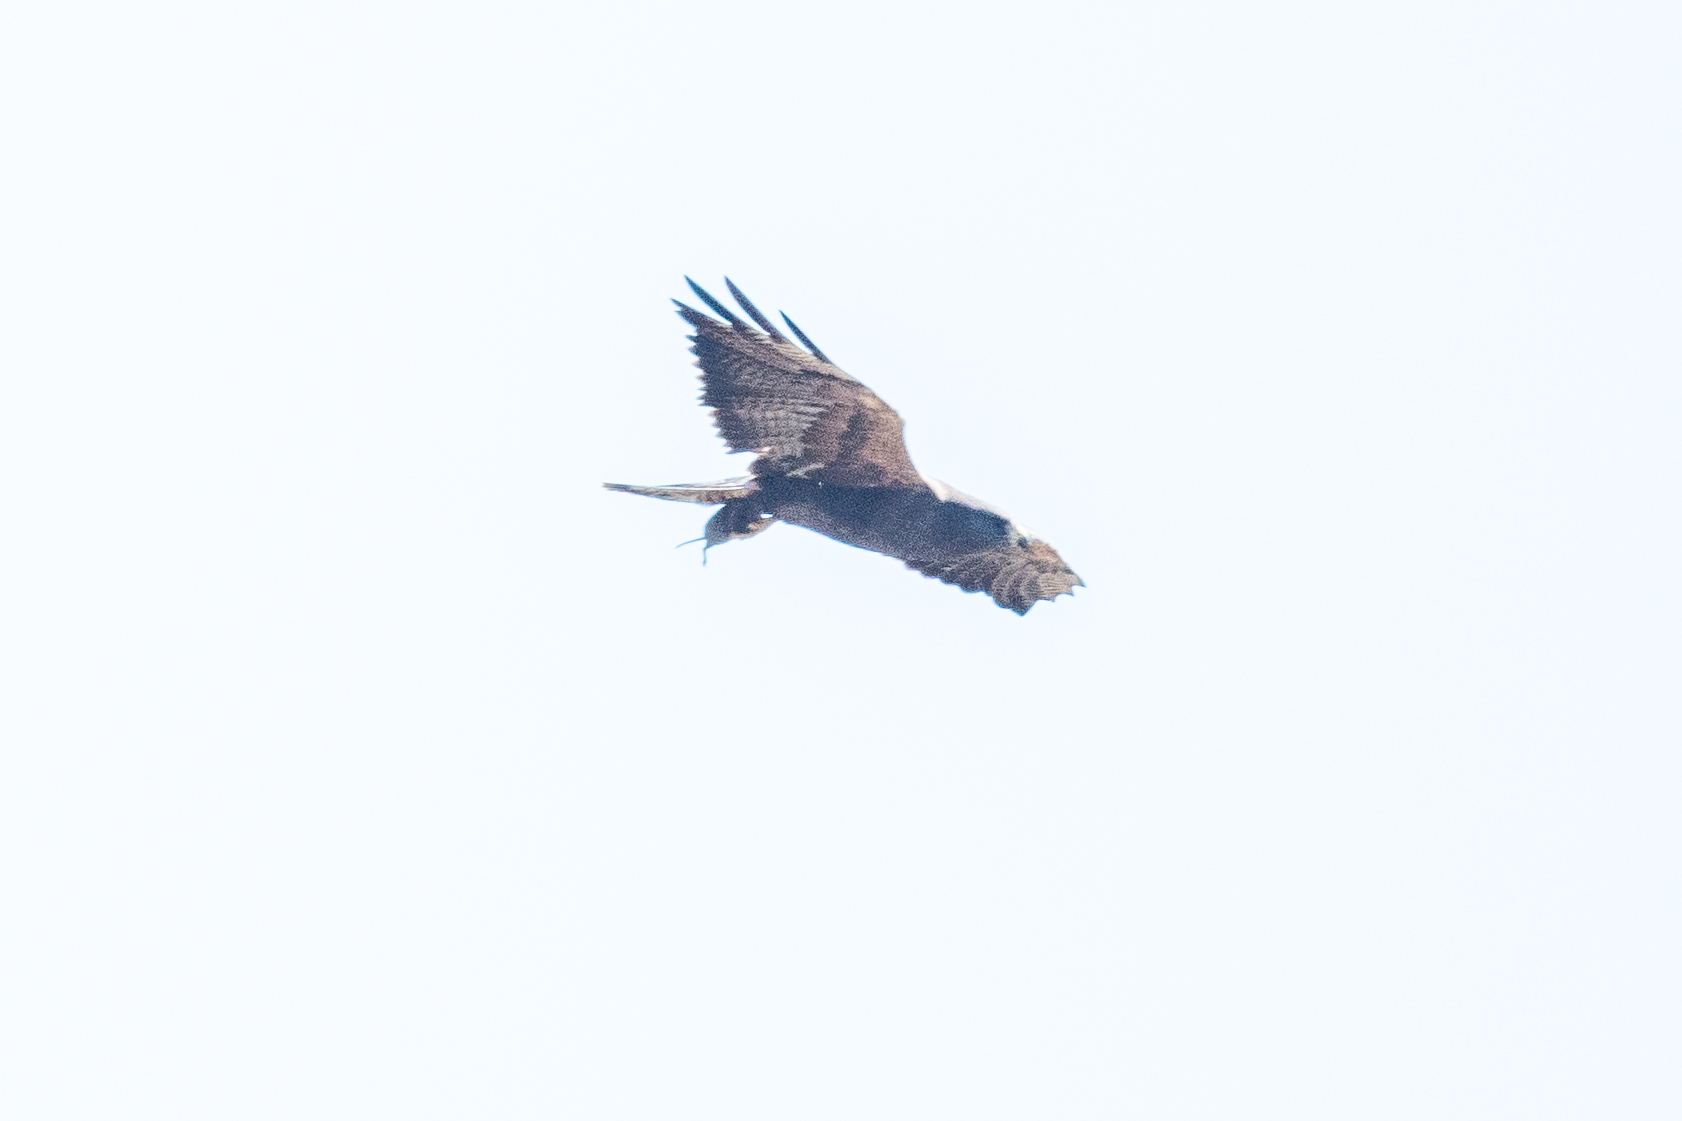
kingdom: Animalia
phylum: Chordata
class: Aves
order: Accipitriformes
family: Accipitridae
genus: Buteo
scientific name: Buteo swainsoni
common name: Swainson's hawk
